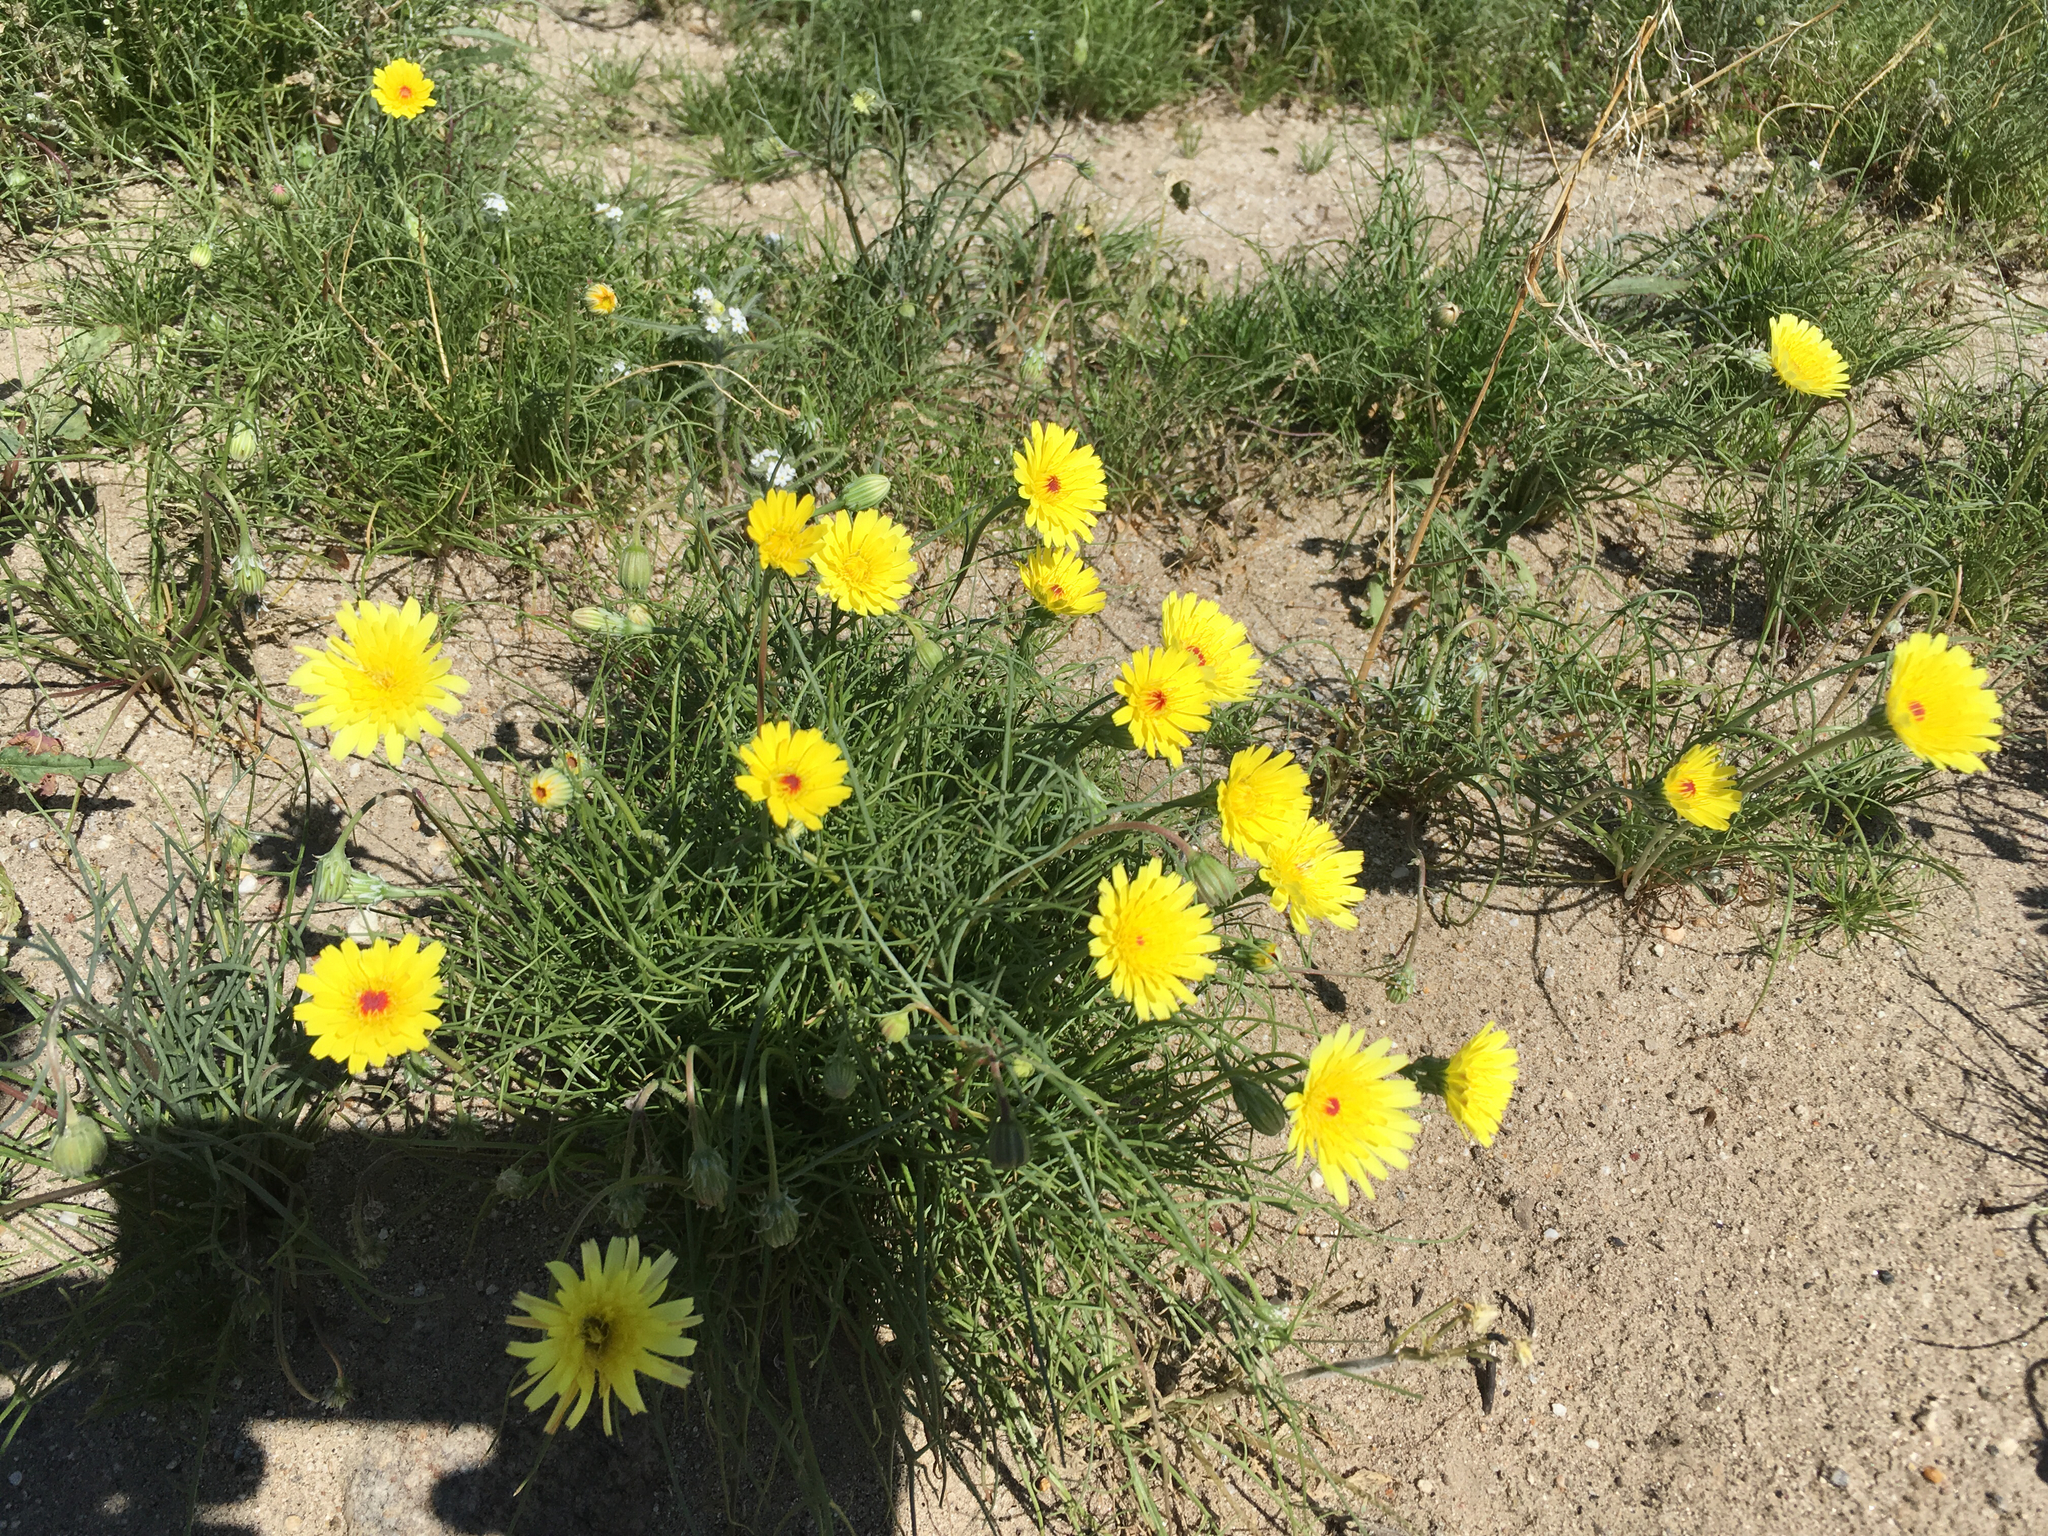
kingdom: Plantae
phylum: Tracheophyta
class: Magnoliopsida
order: Asterales
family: Asteraceae
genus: Malacothrix
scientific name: Malacothrix glabrata
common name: Smooth desert-dandelion
